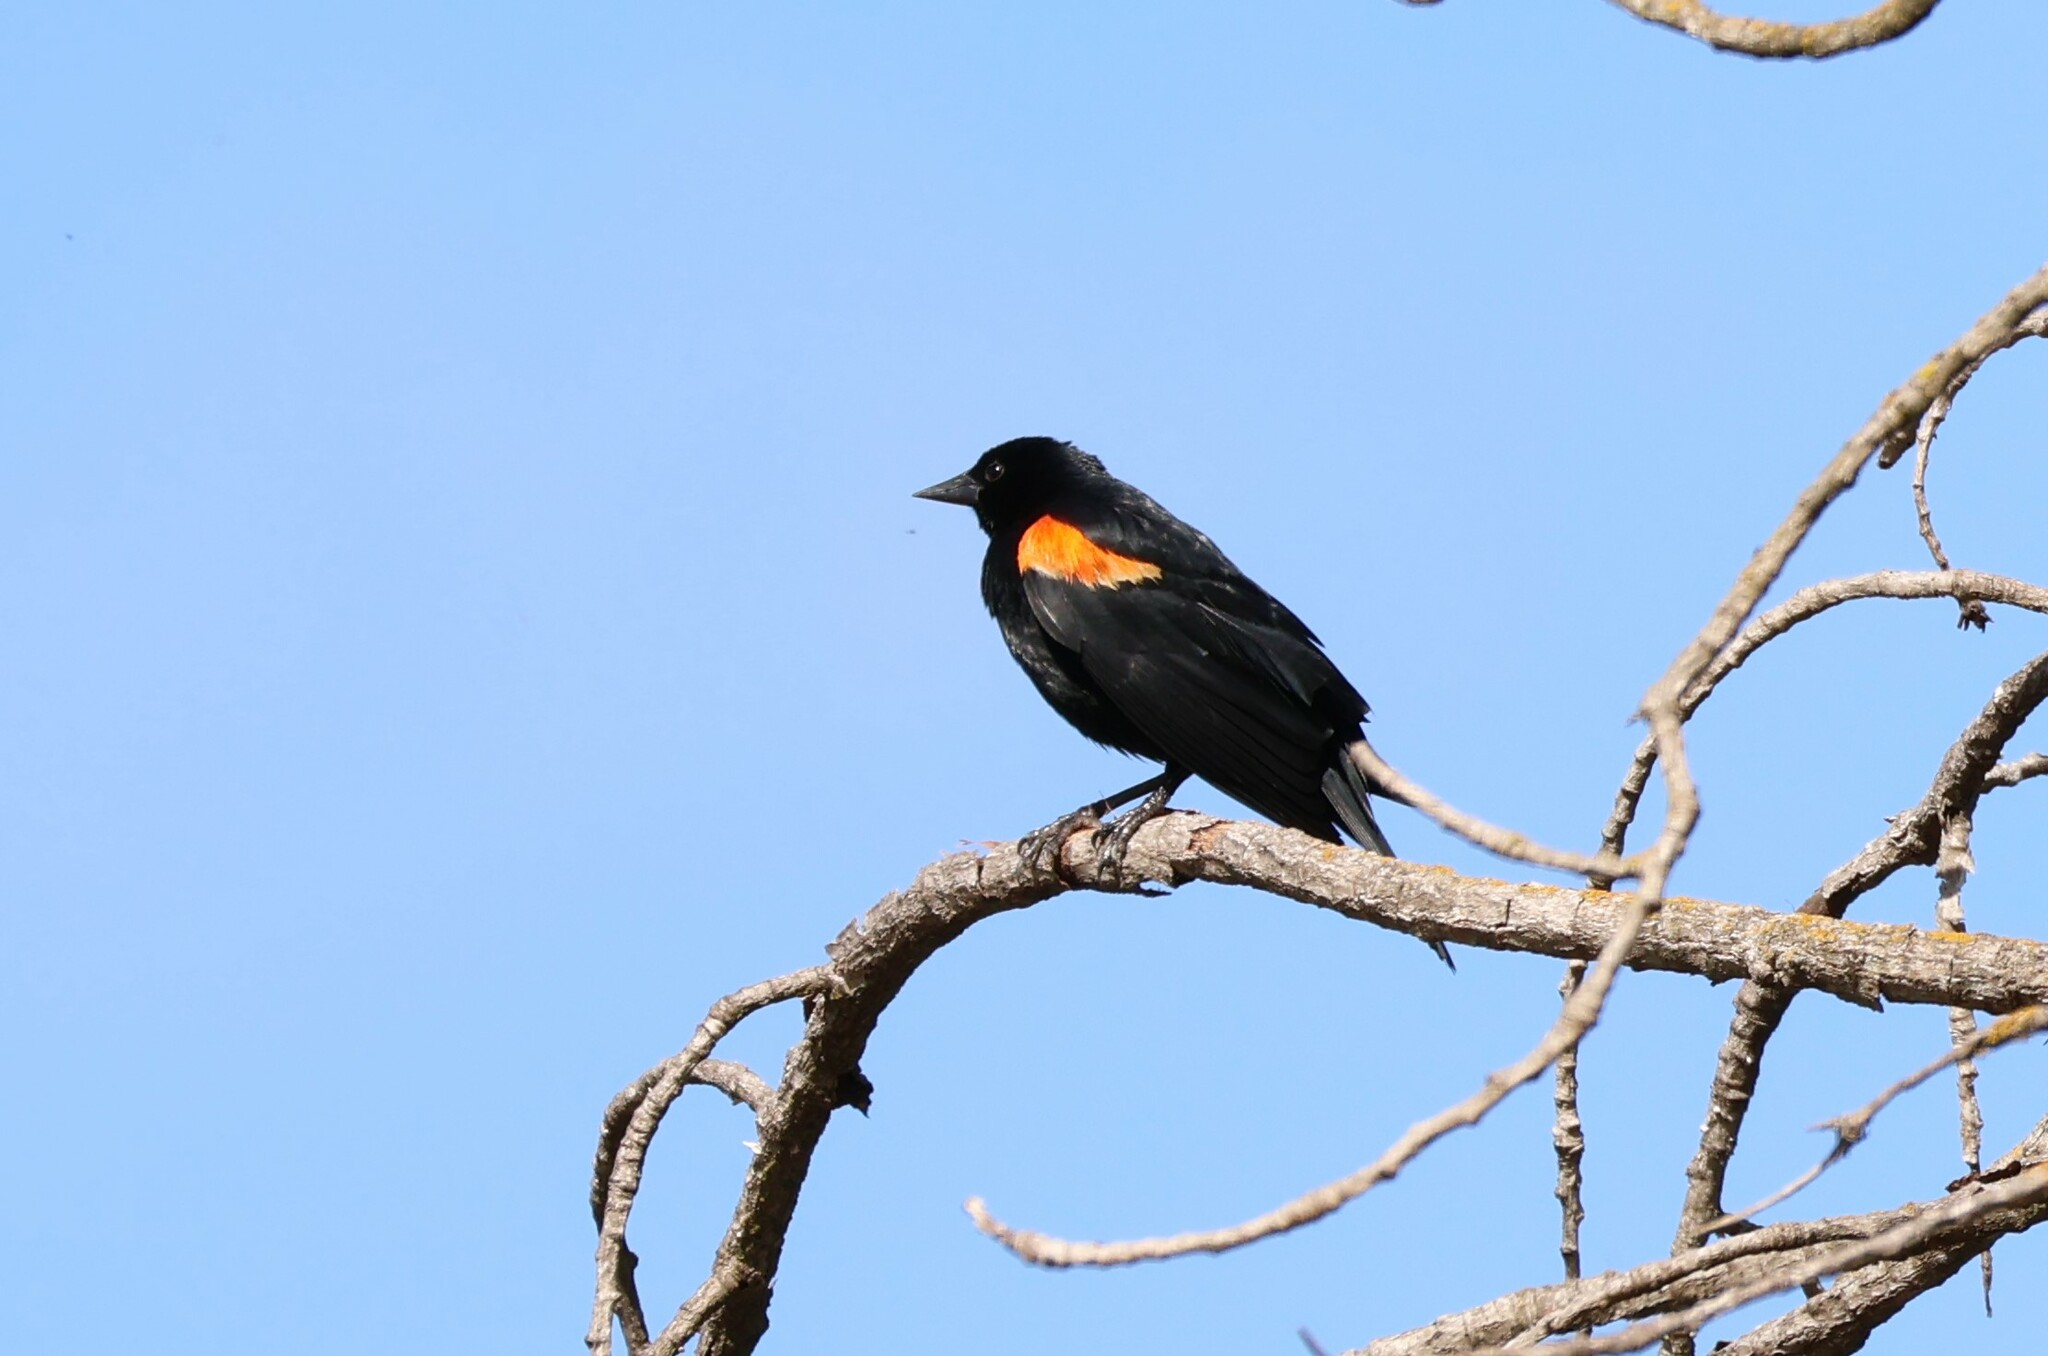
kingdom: Animalia
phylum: Chordata
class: Aves
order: Passeriformes
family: Icteridae
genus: Agelaius
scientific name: Agelaius phoeniceus
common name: Red-winged blackbird
